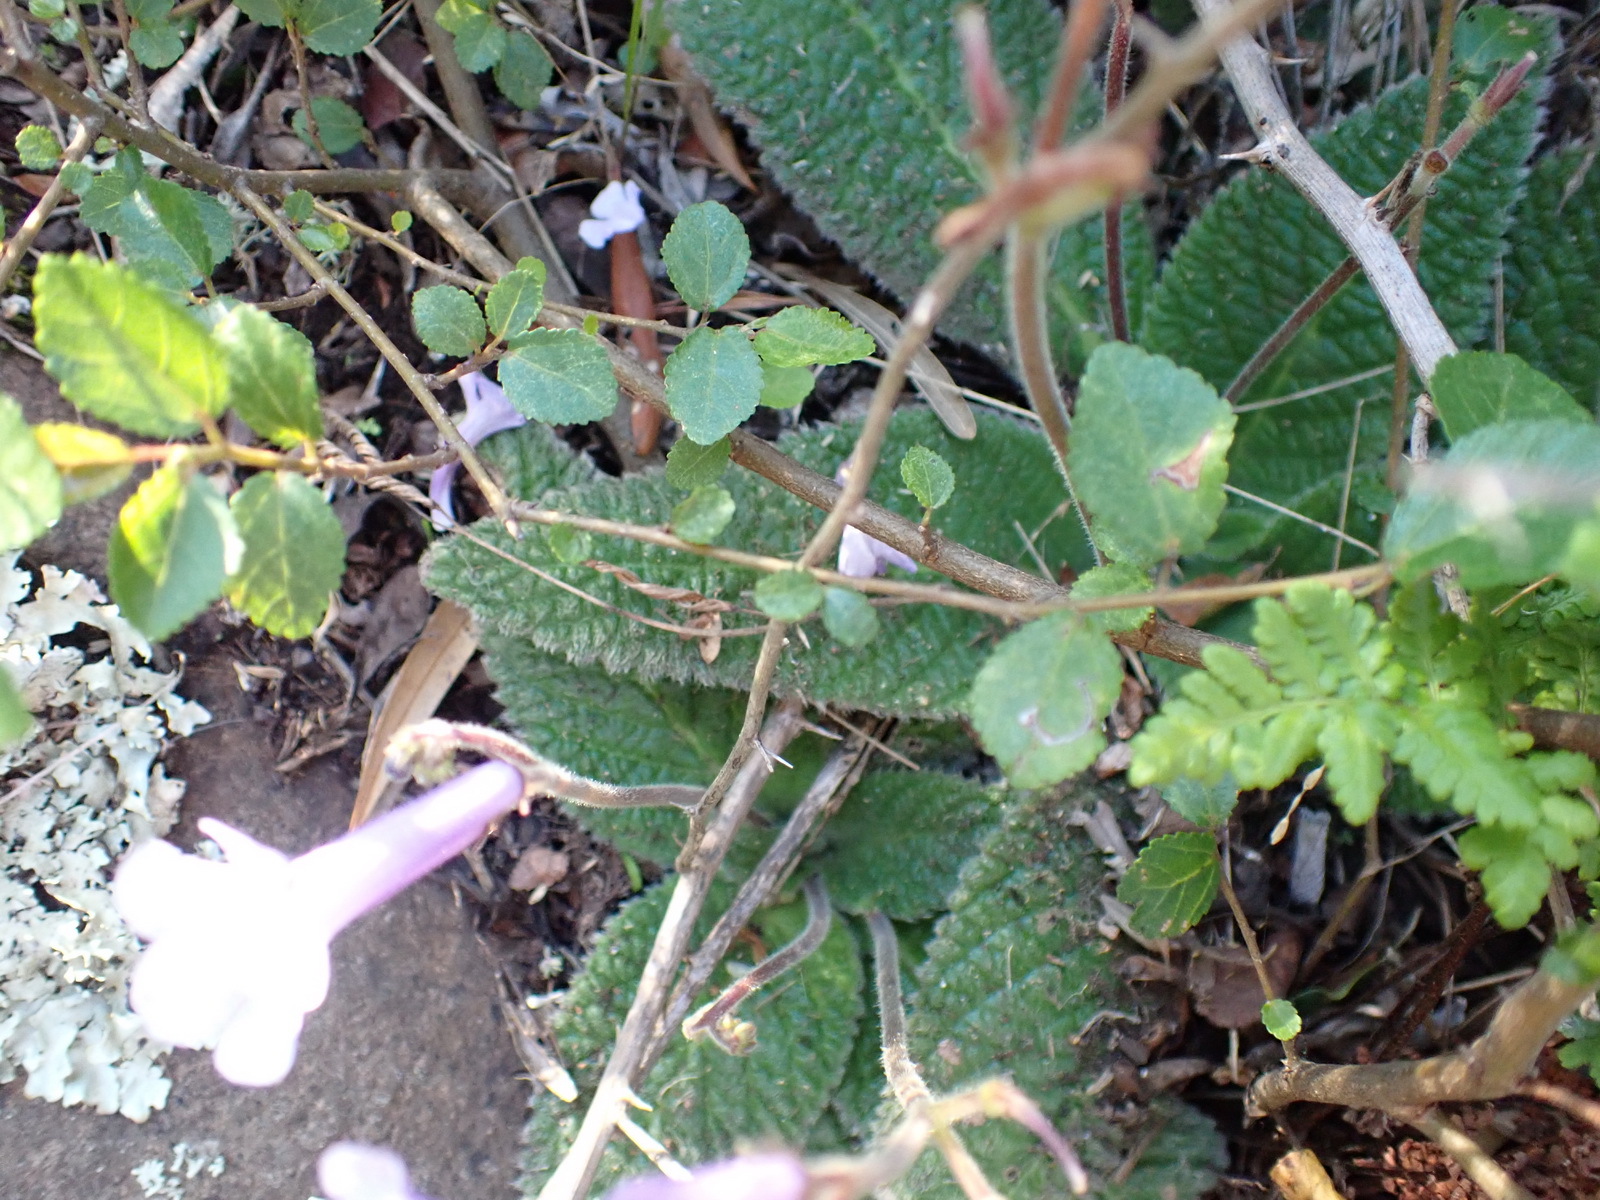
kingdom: Plantae
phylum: Tracheophyta
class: Magnoliopsida
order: Lamiales
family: Gesneriaceae
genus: Streptocarpus
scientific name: Streptocarpus meyeri
